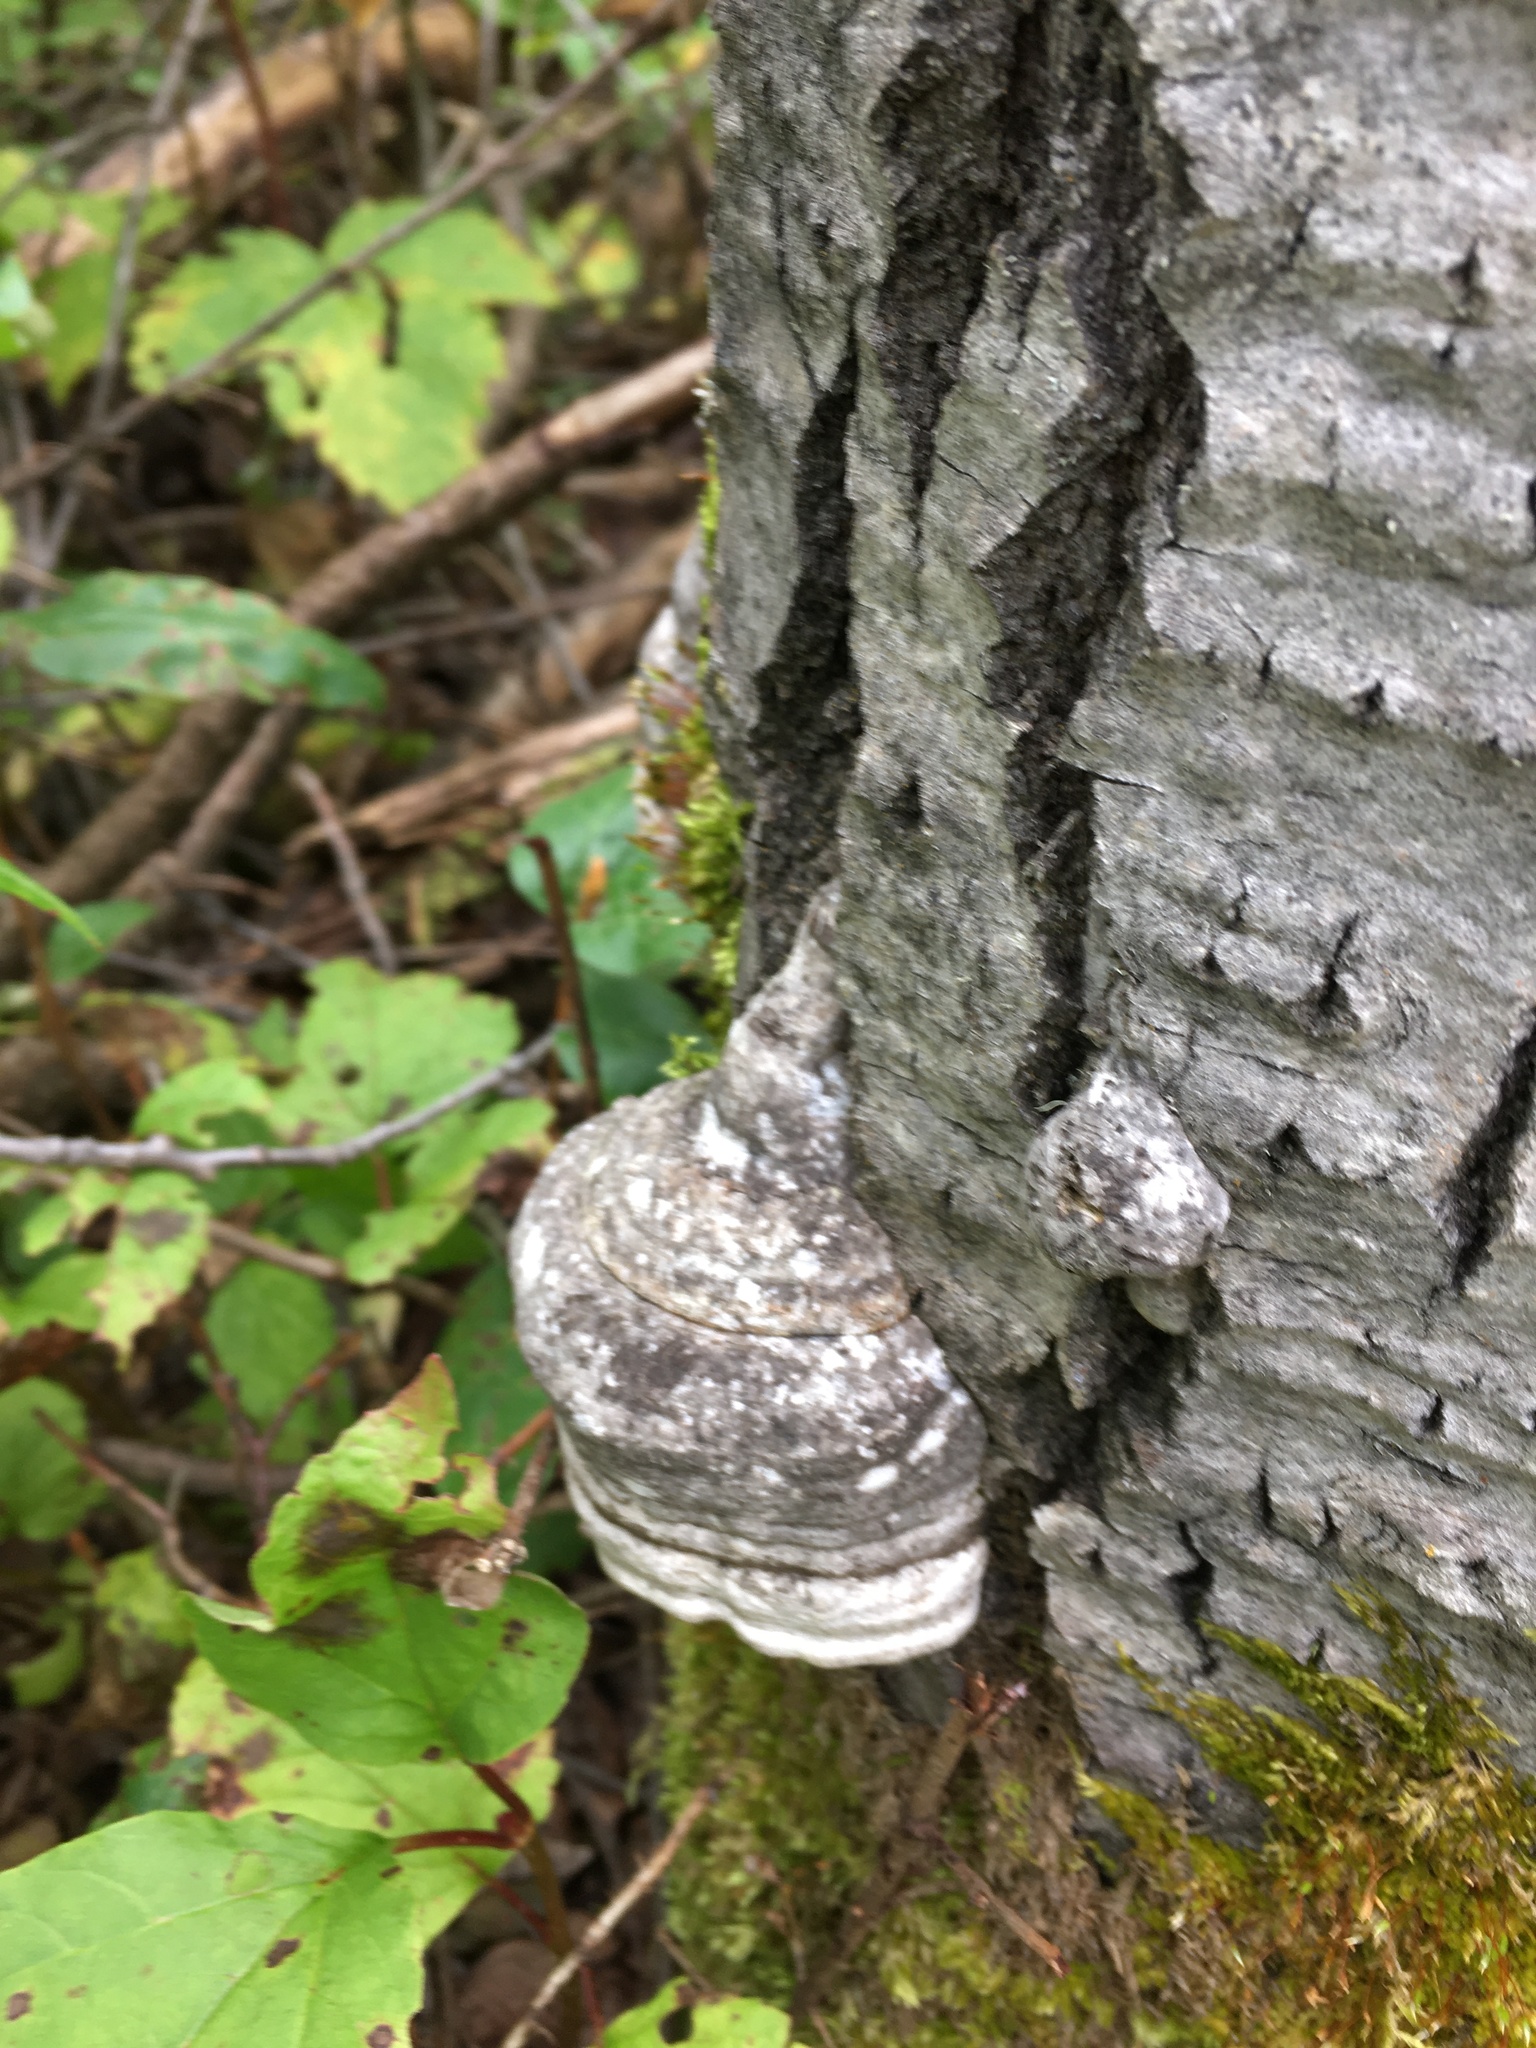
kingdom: Fungi
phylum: Basidiomycota
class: Agaricomycetes
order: Polyporales
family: Polyporaceae
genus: Fomes
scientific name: Fomes fomentarius
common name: Hoof fungus
